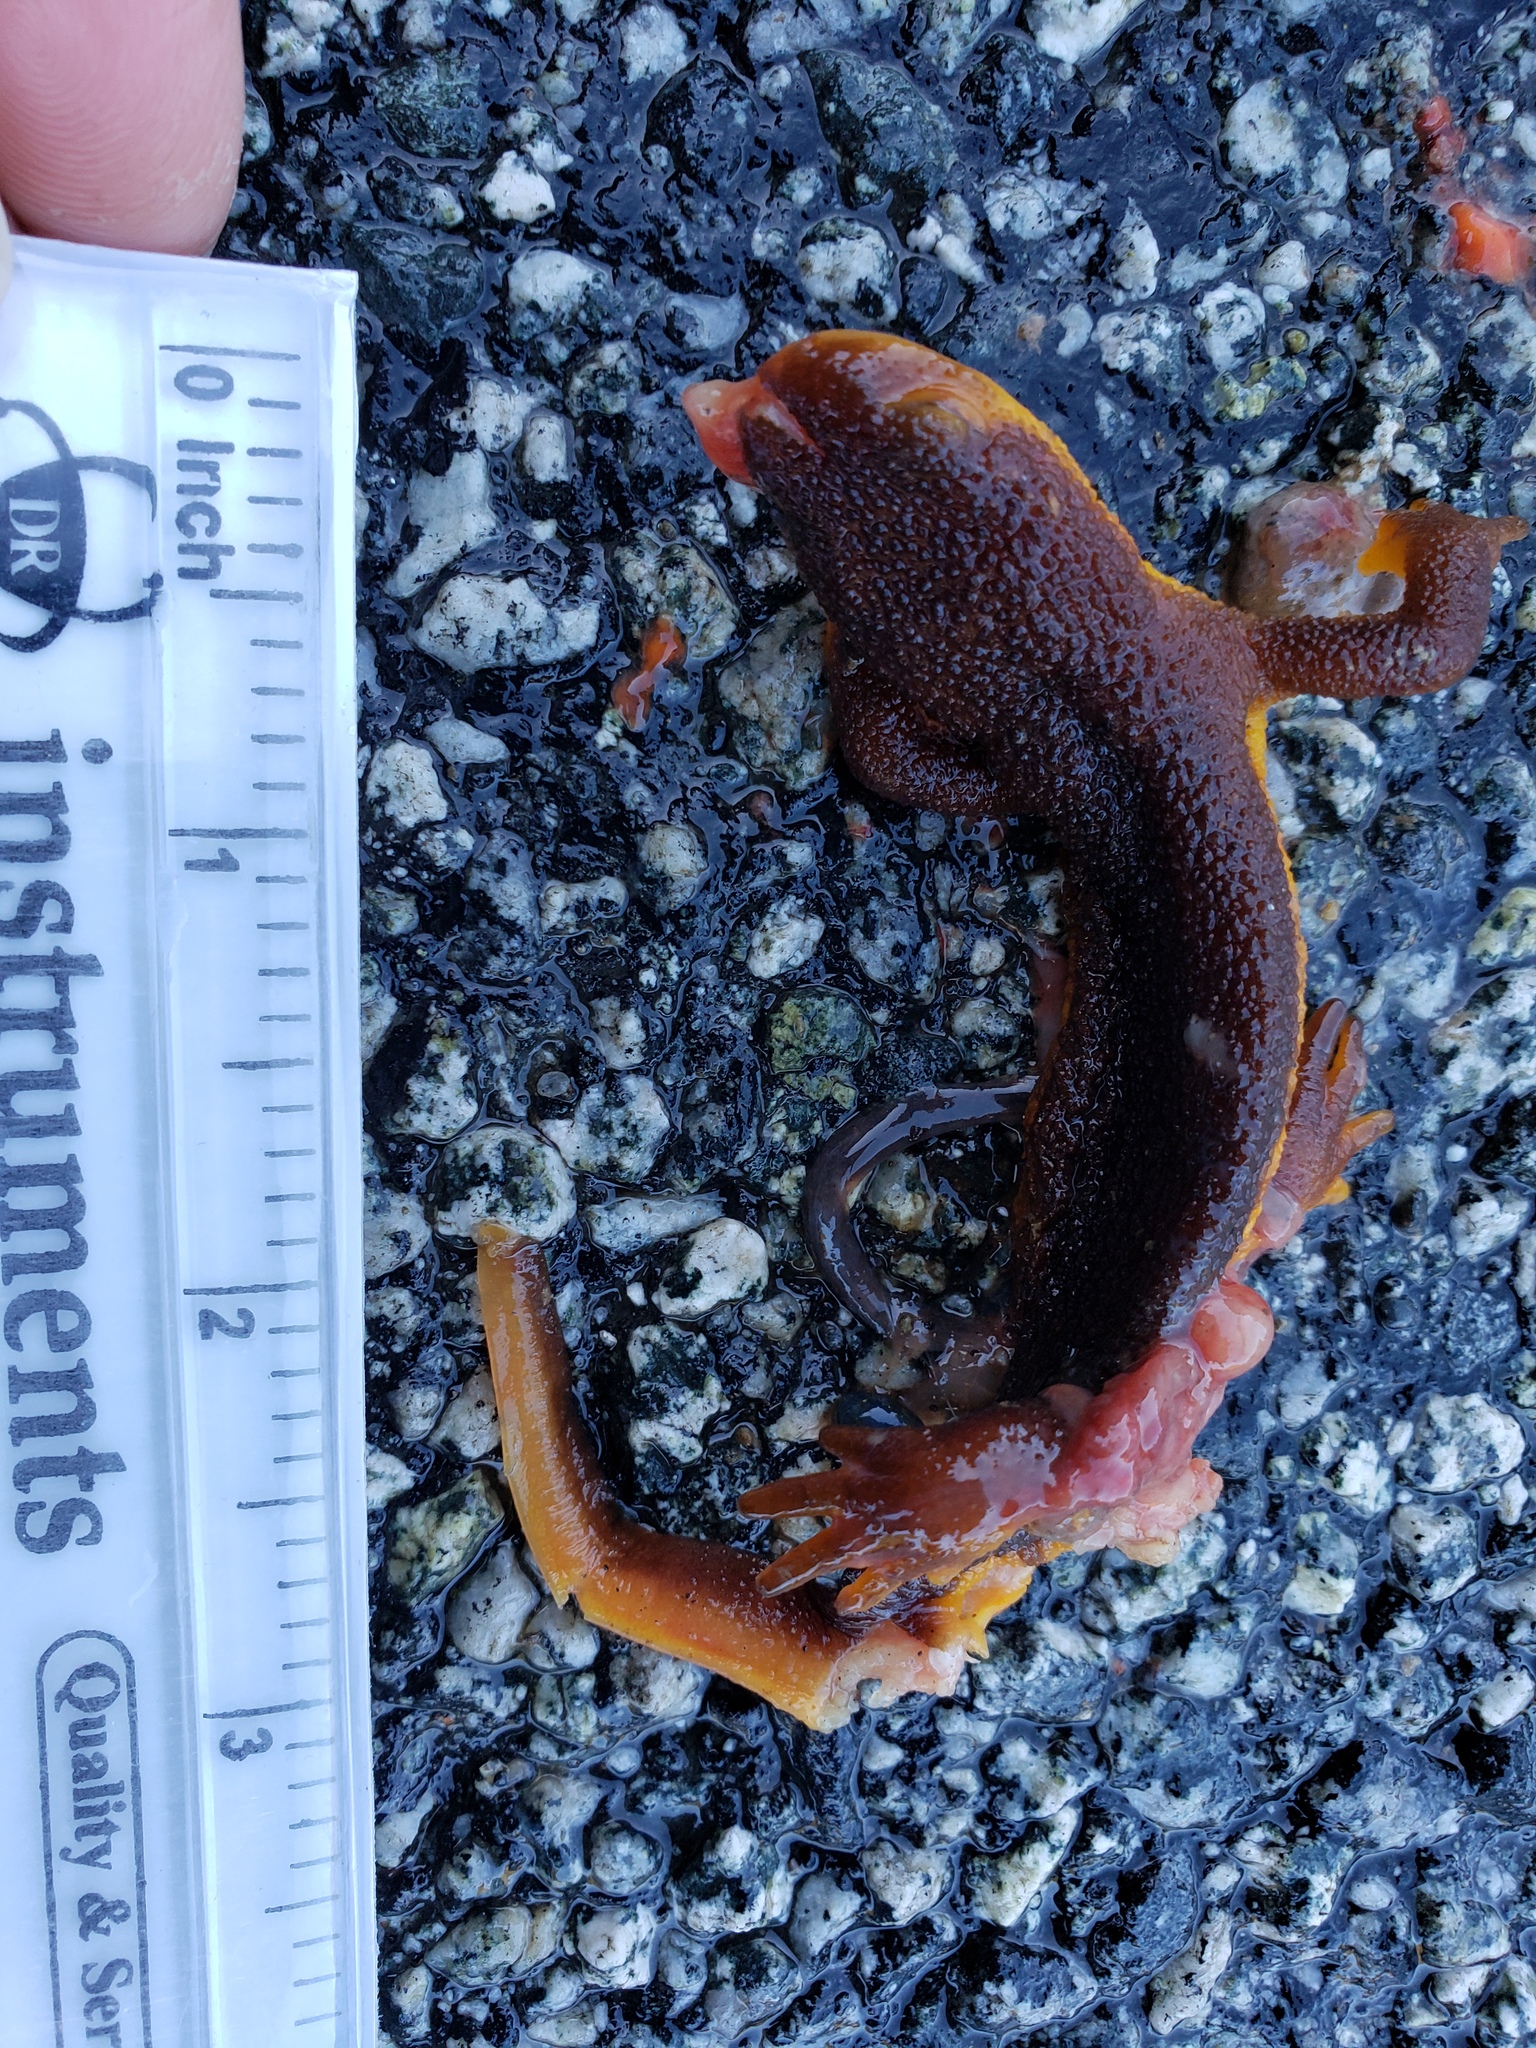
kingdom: Animalia
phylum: Chordata
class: Amphibia
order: Caudata
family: Salamandridae
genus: Taricha
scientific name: Taricha
